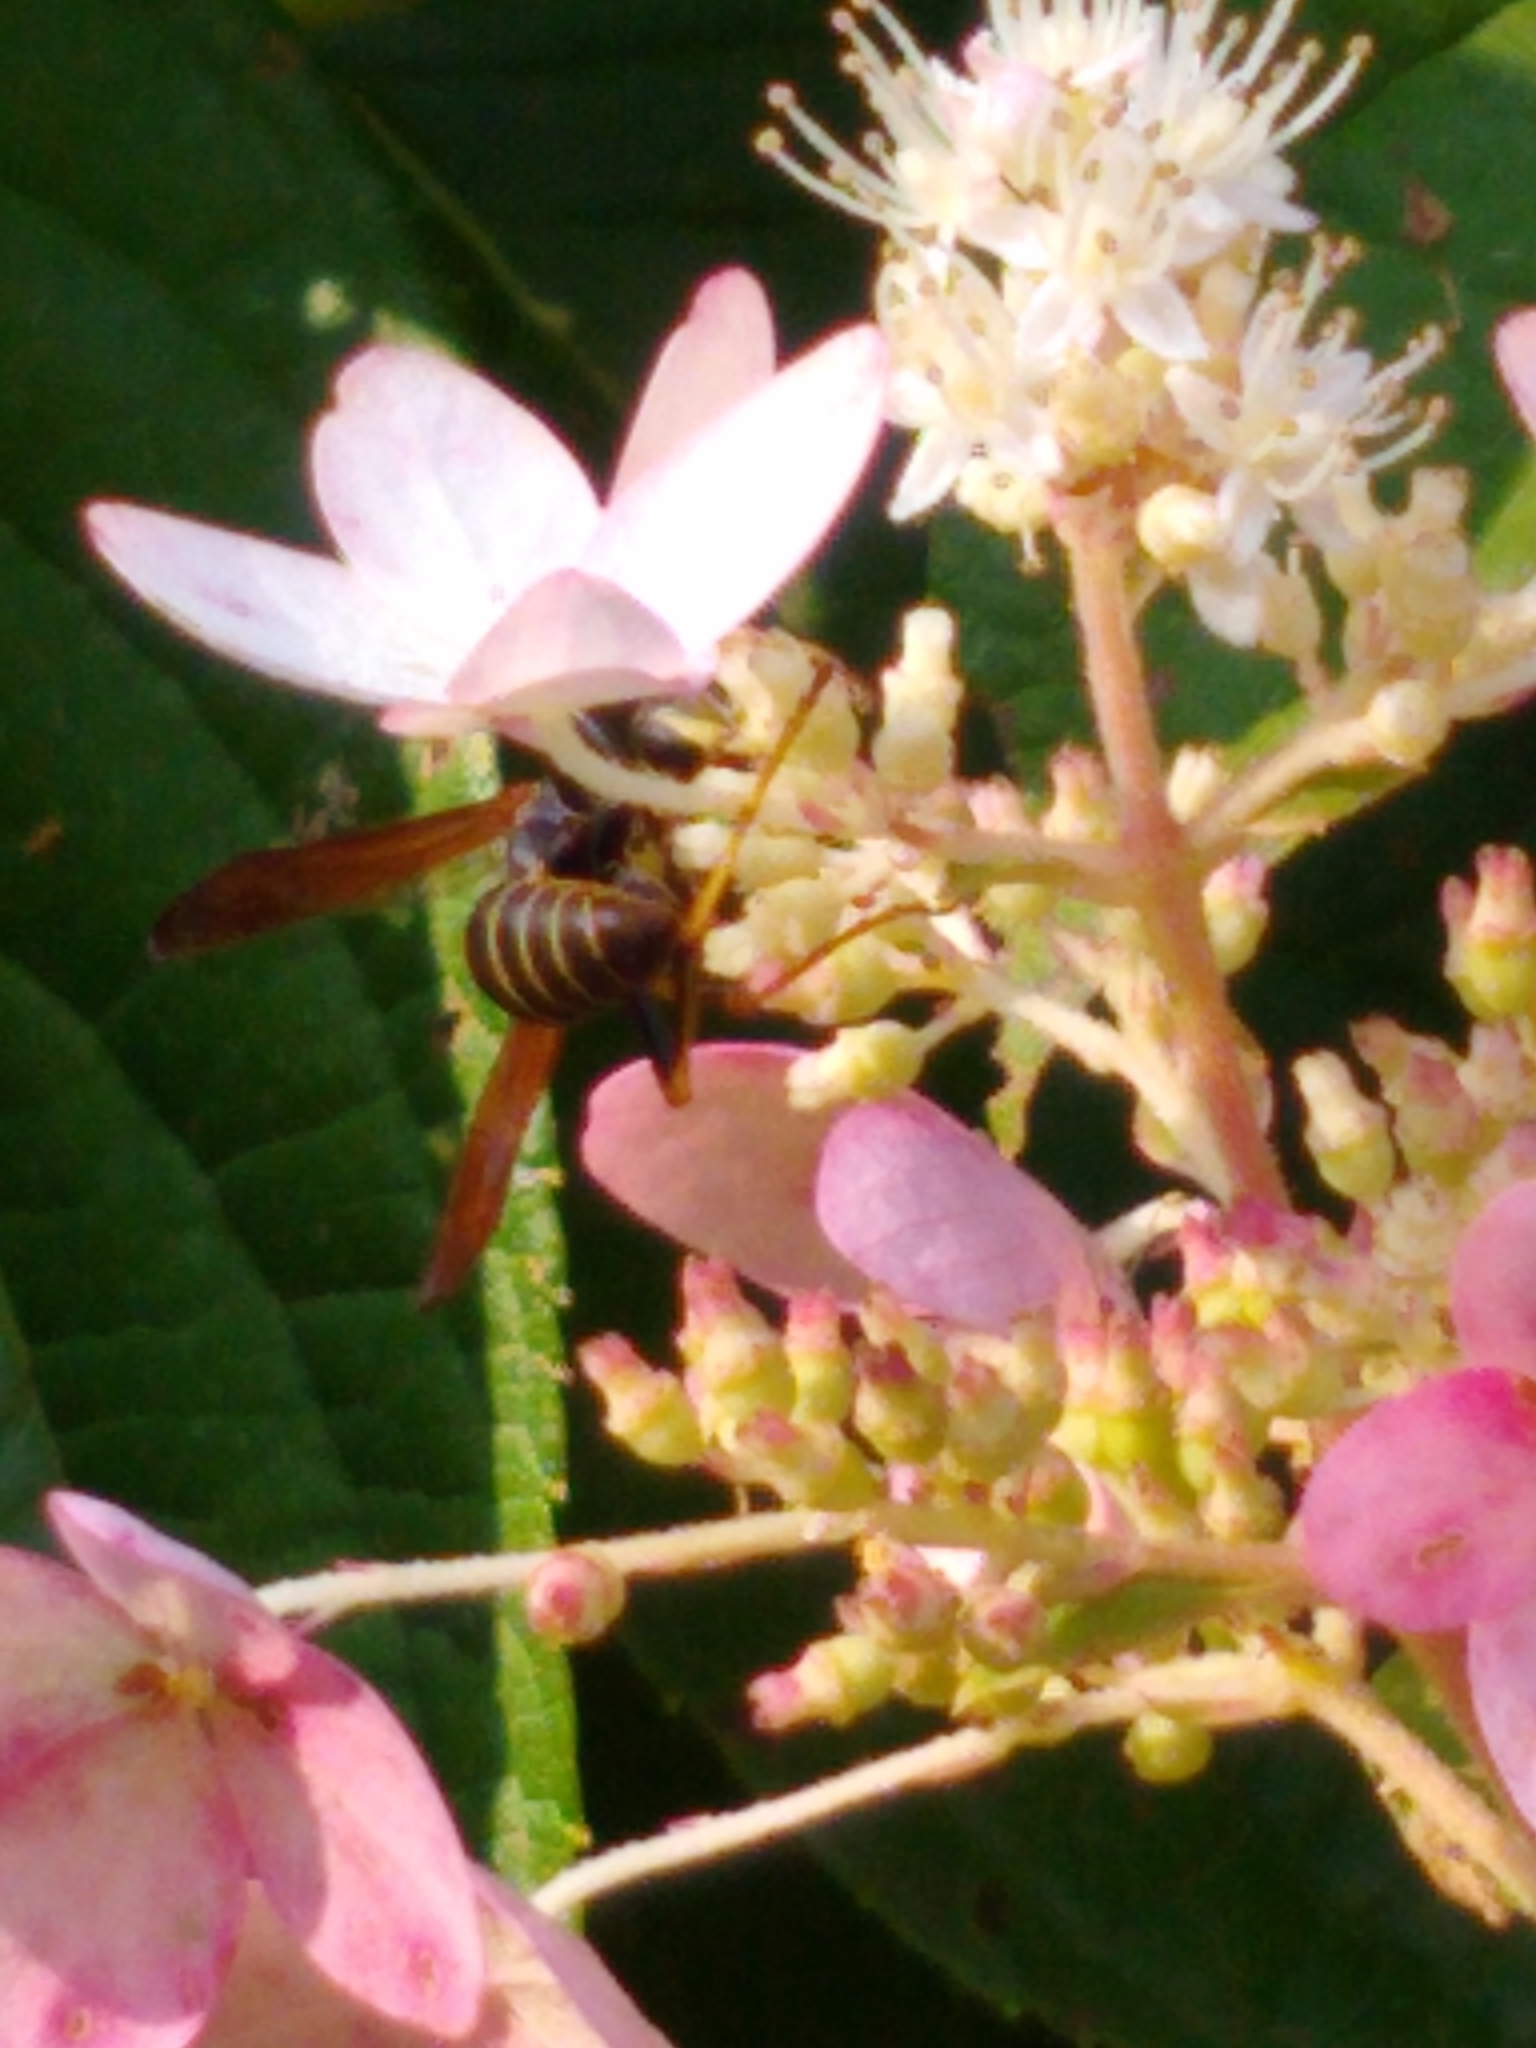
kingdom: Animalia
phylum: Arthropoda
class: Insecta
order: Hymenoptera
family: Eumenidae
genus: Polistes
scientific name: Polistes fuscatus
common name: Dark paper wasp
